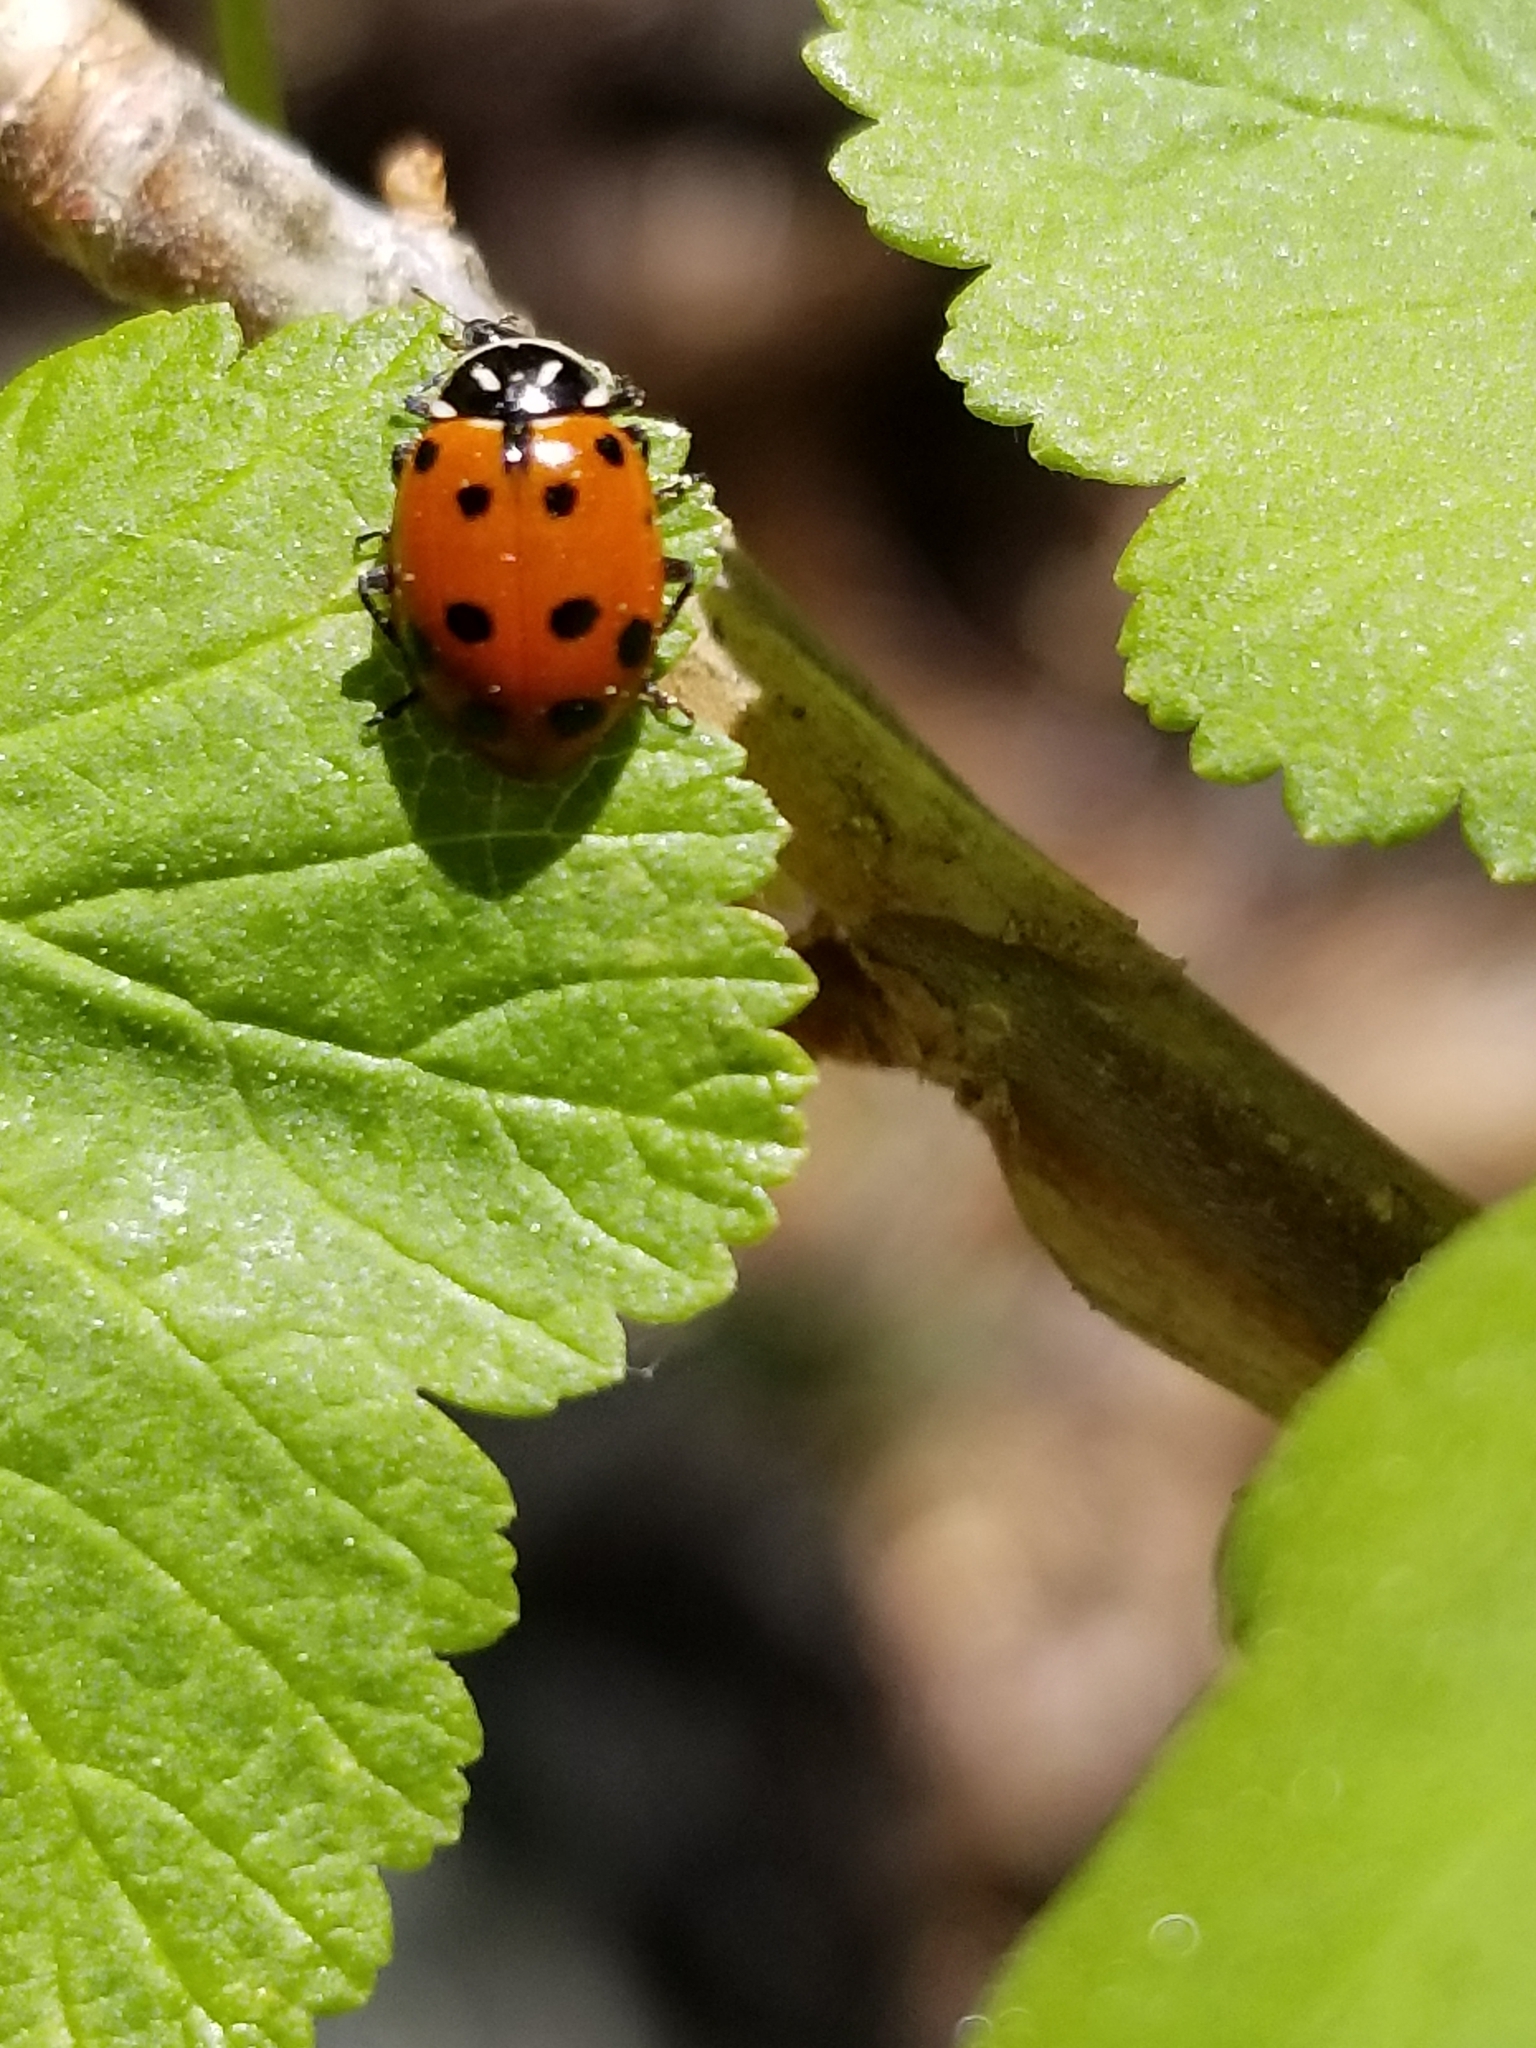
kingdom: Animalia
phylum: Arthropoda
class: Insecta
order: Coleoptera
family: Coccinellidae
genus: Hippodamia
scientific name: Hippodamia convergens
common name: Convergent lady beetle
